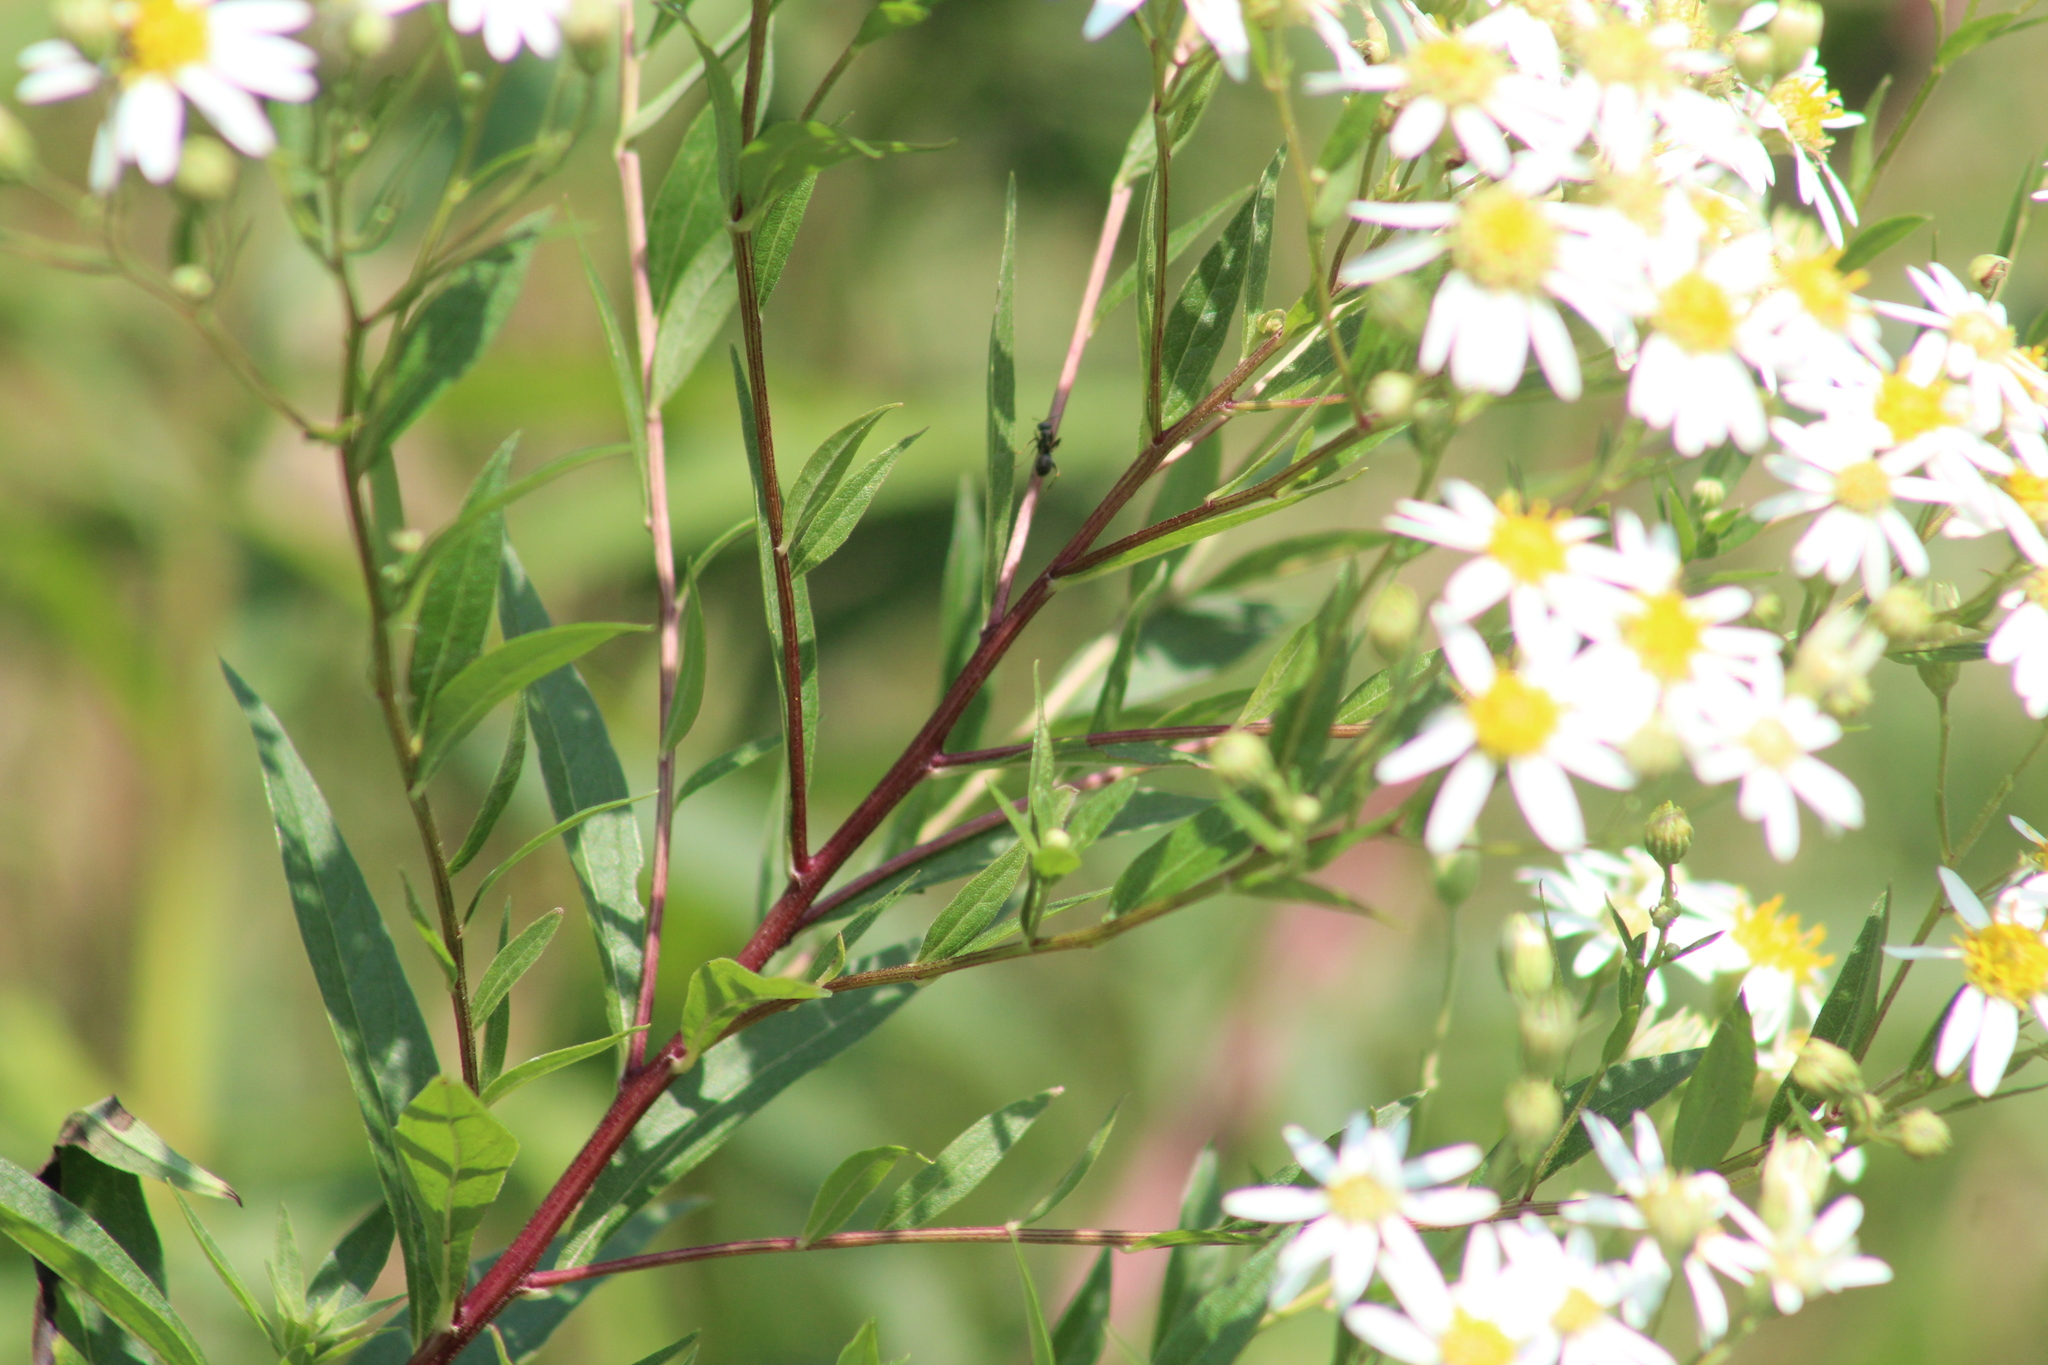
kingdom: Plantae
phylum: Tracheophyta
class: Magnoliopsida
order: Asterales
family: Asteraceae
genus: Doellingeria
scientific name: Doellingeria umbellata
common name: Flat-top white aster
